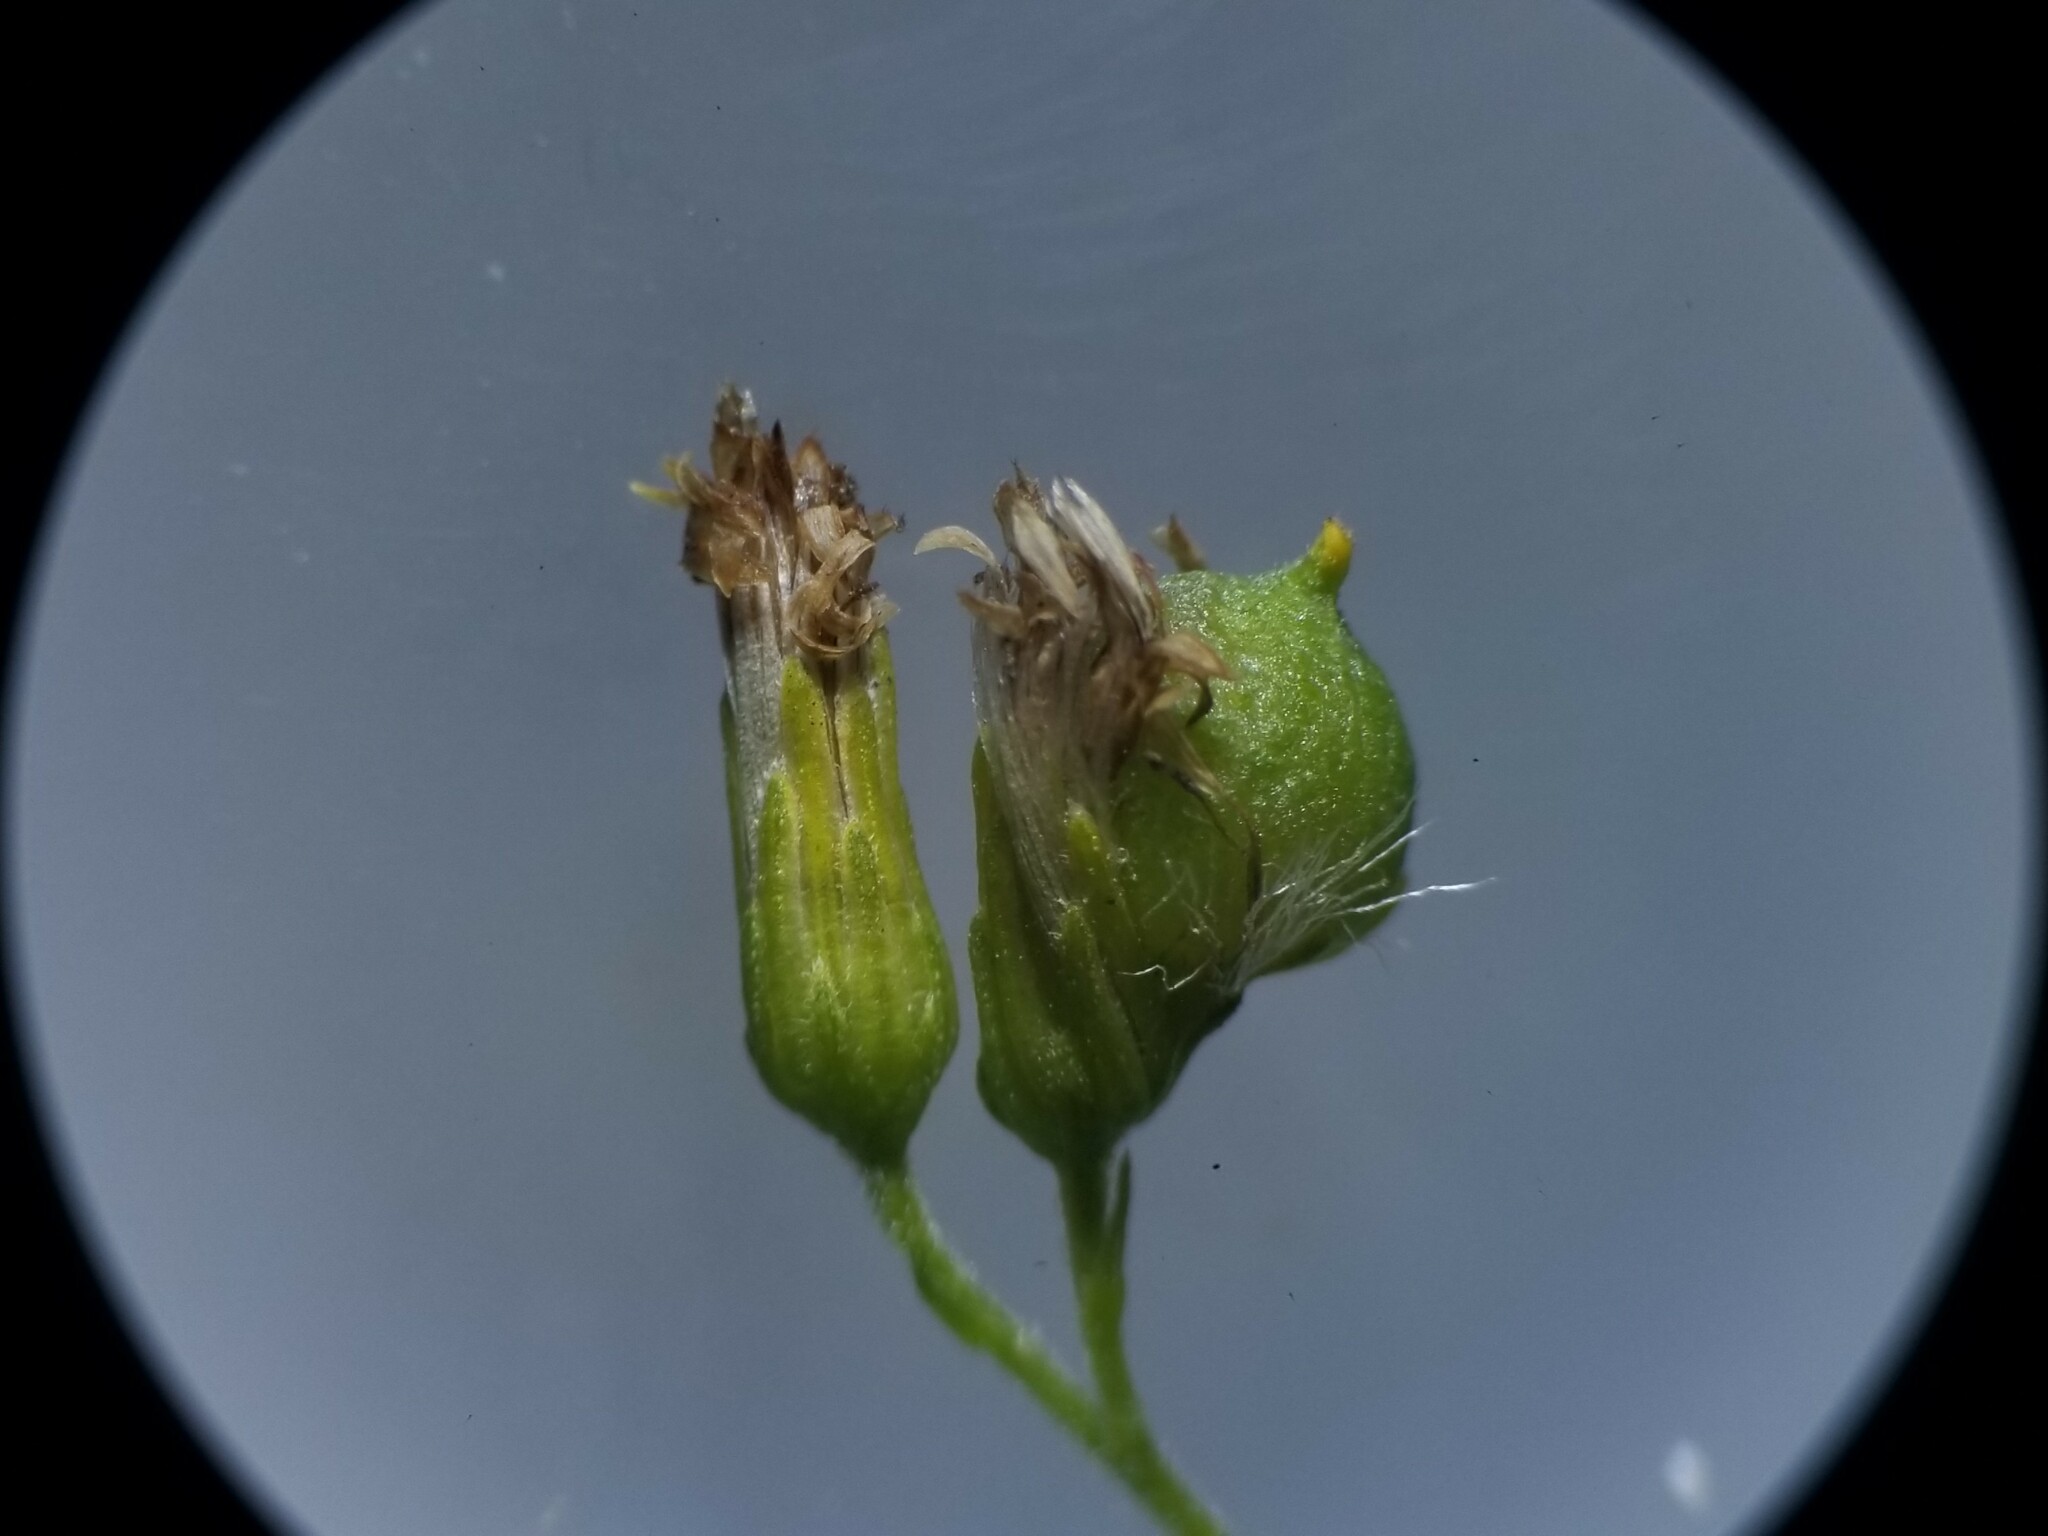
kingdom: Animalia
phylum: Arthropoda
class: Insecta
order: Diptera
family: Cecidomyiidae
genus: Schizomyia
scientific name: Schizomyia racemicola
